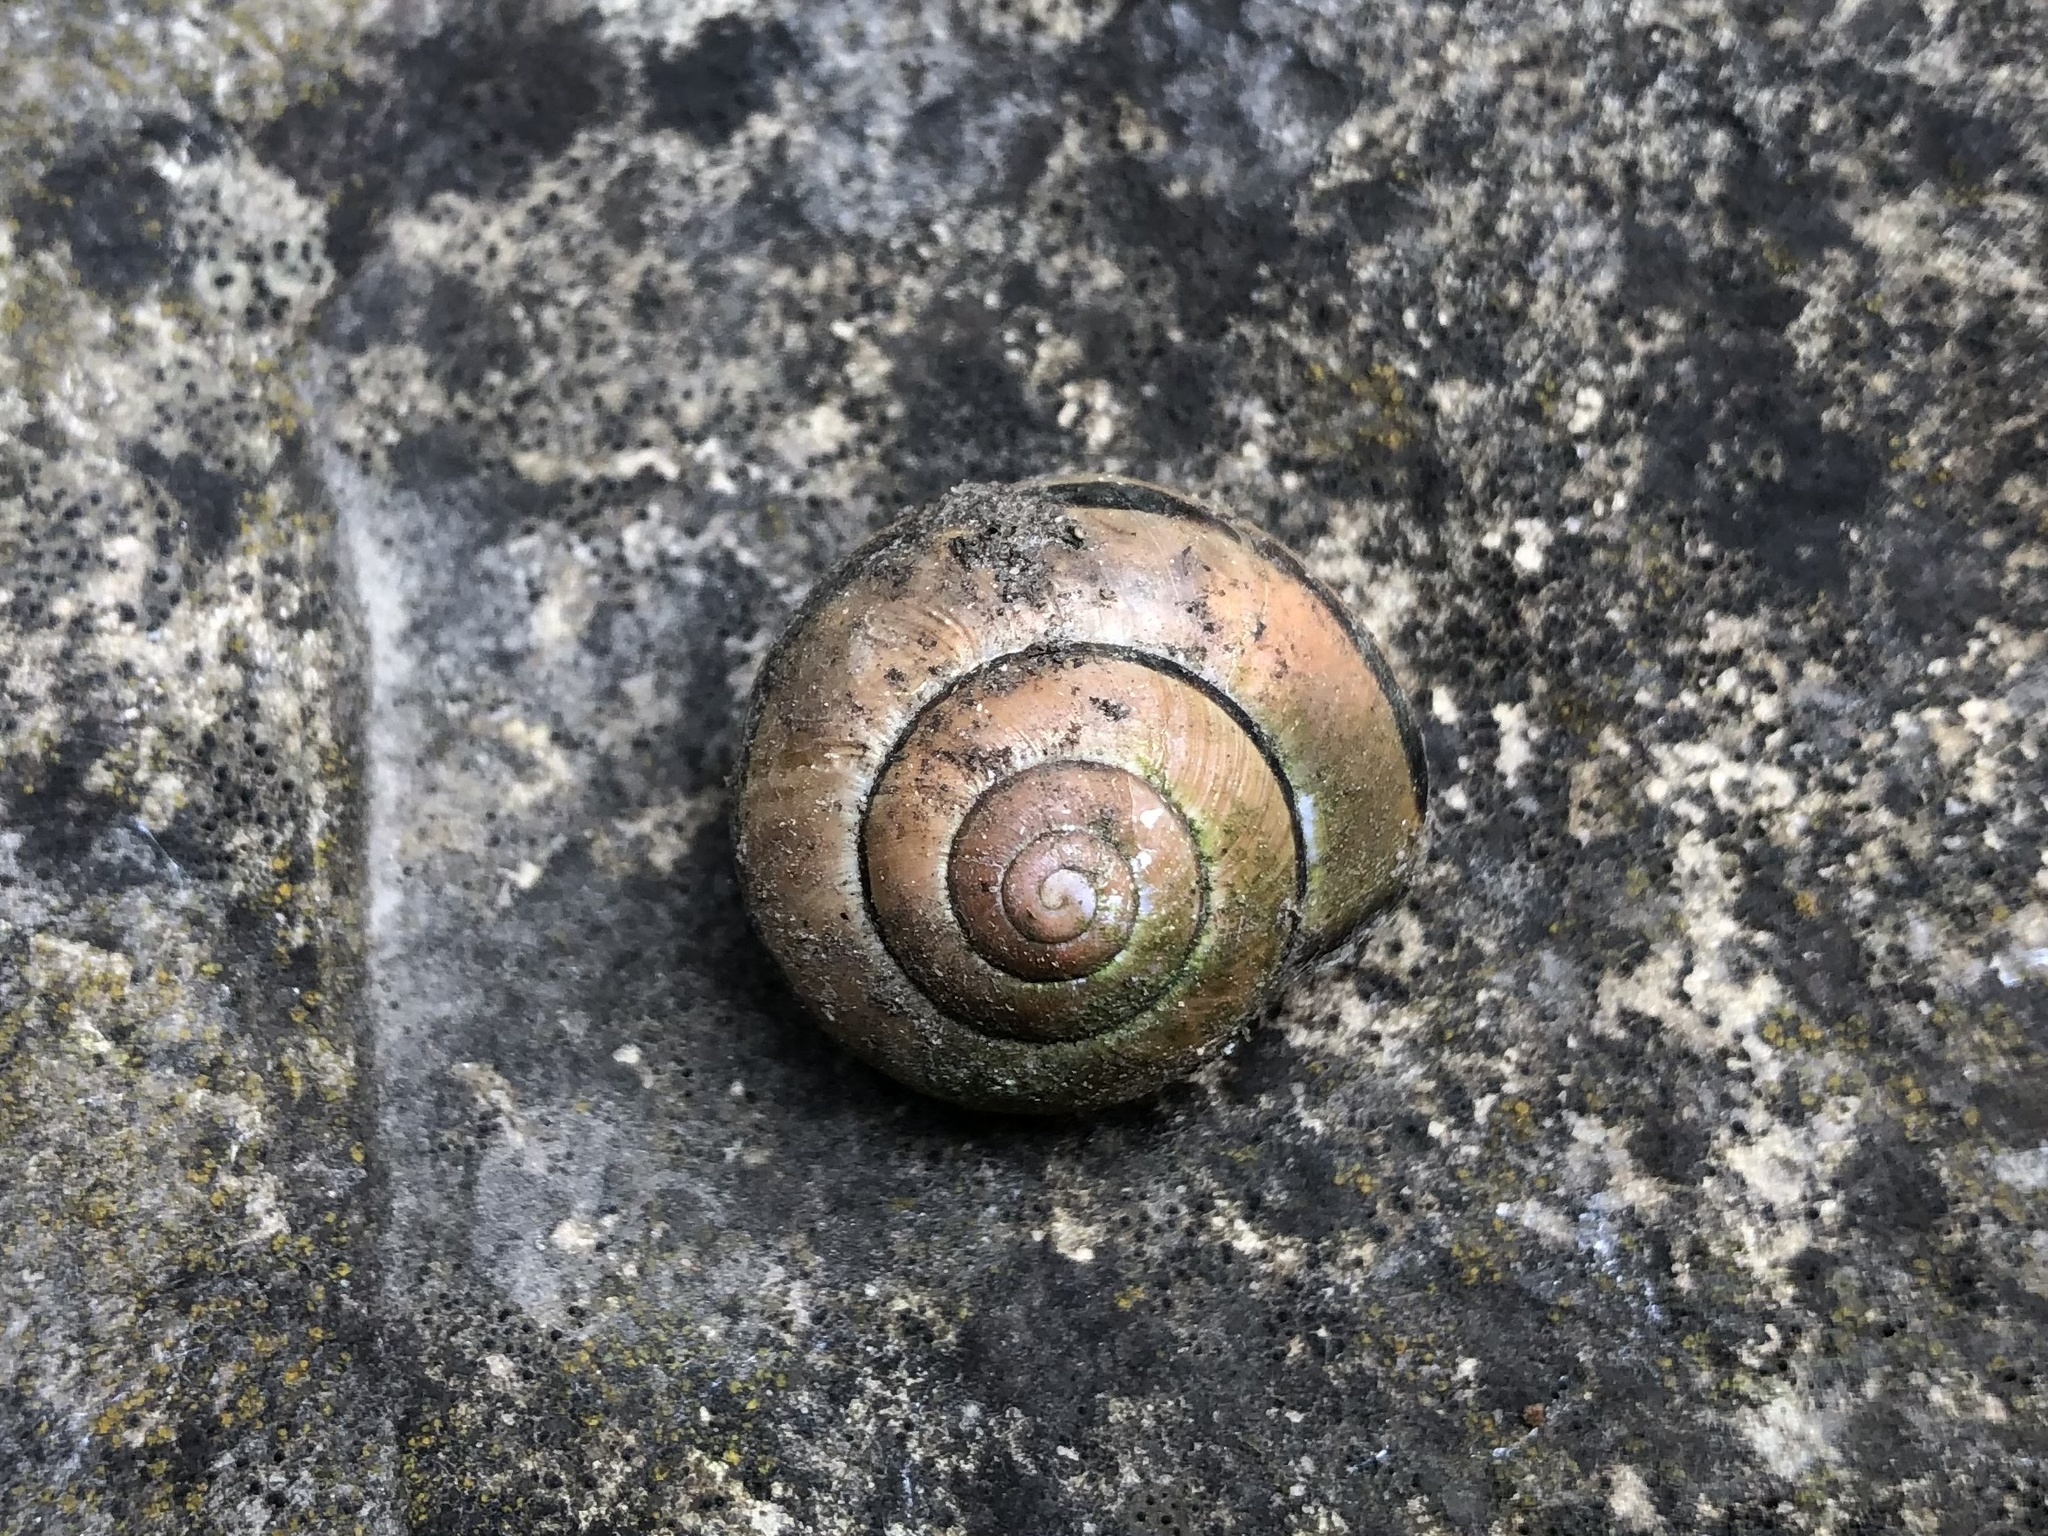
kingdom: Animalia
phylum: Mollusca
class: Gastropoda
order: Stylommatophora
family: Helicidae
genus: Cepaea
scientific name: Cepaea nemoralis
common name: Grovesnail
